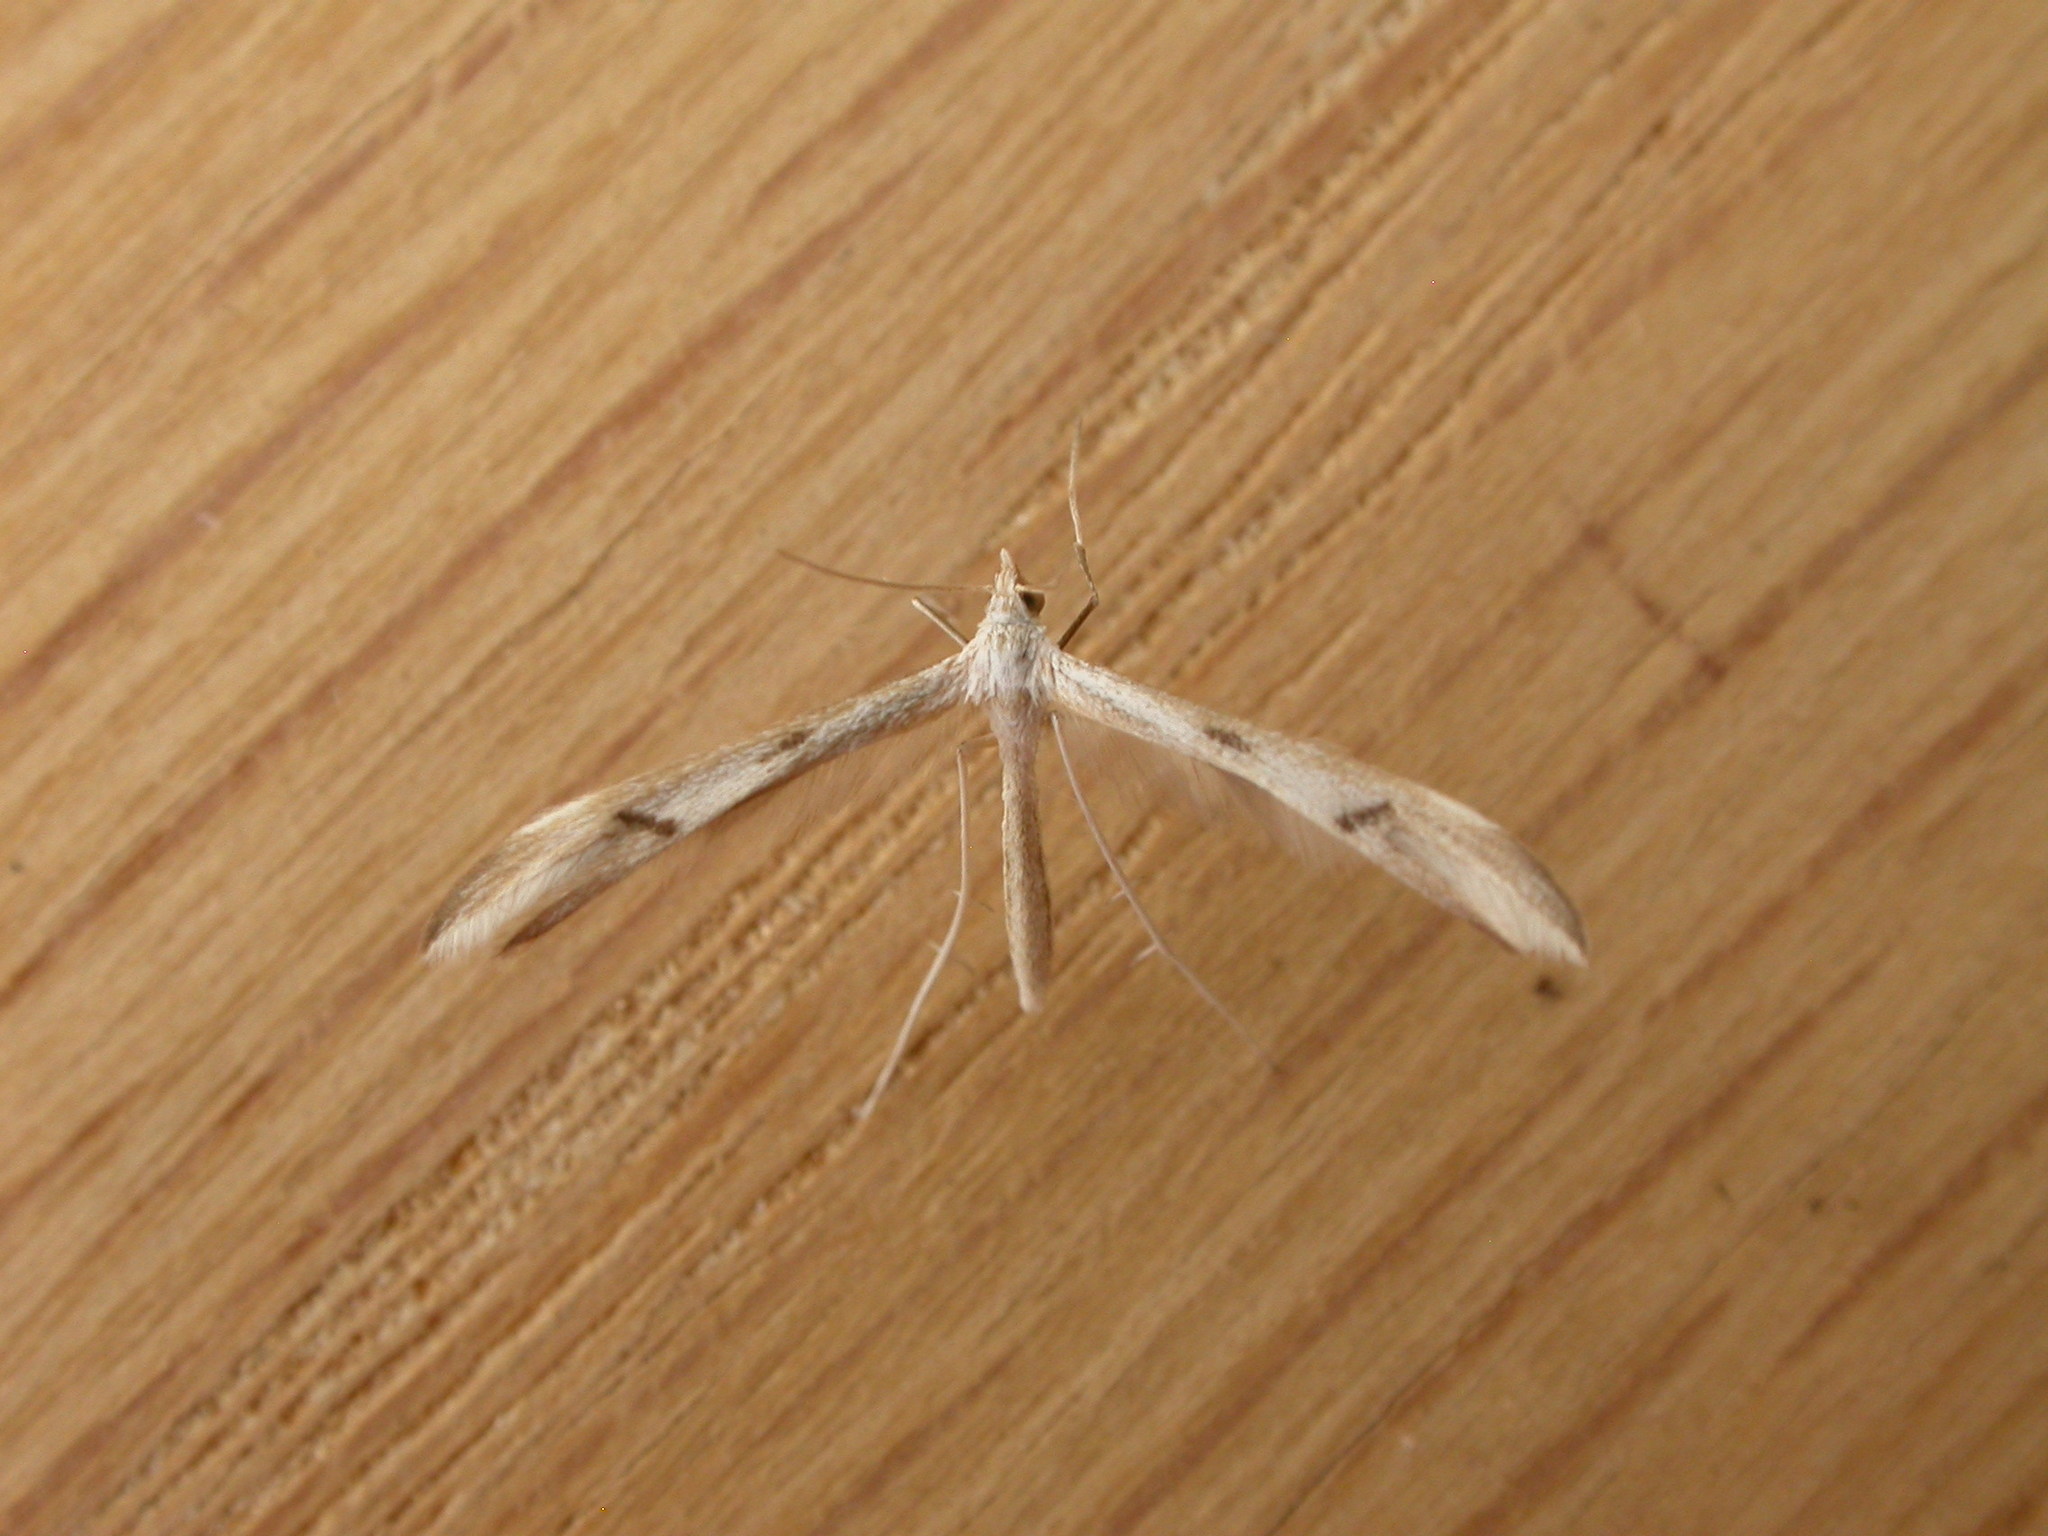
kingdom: Animalia
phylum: Arthropoda
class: Insecta
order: Lepidoptera
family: Pterophoridae
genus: Platyptilia
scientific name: Platyptilia celidotus
